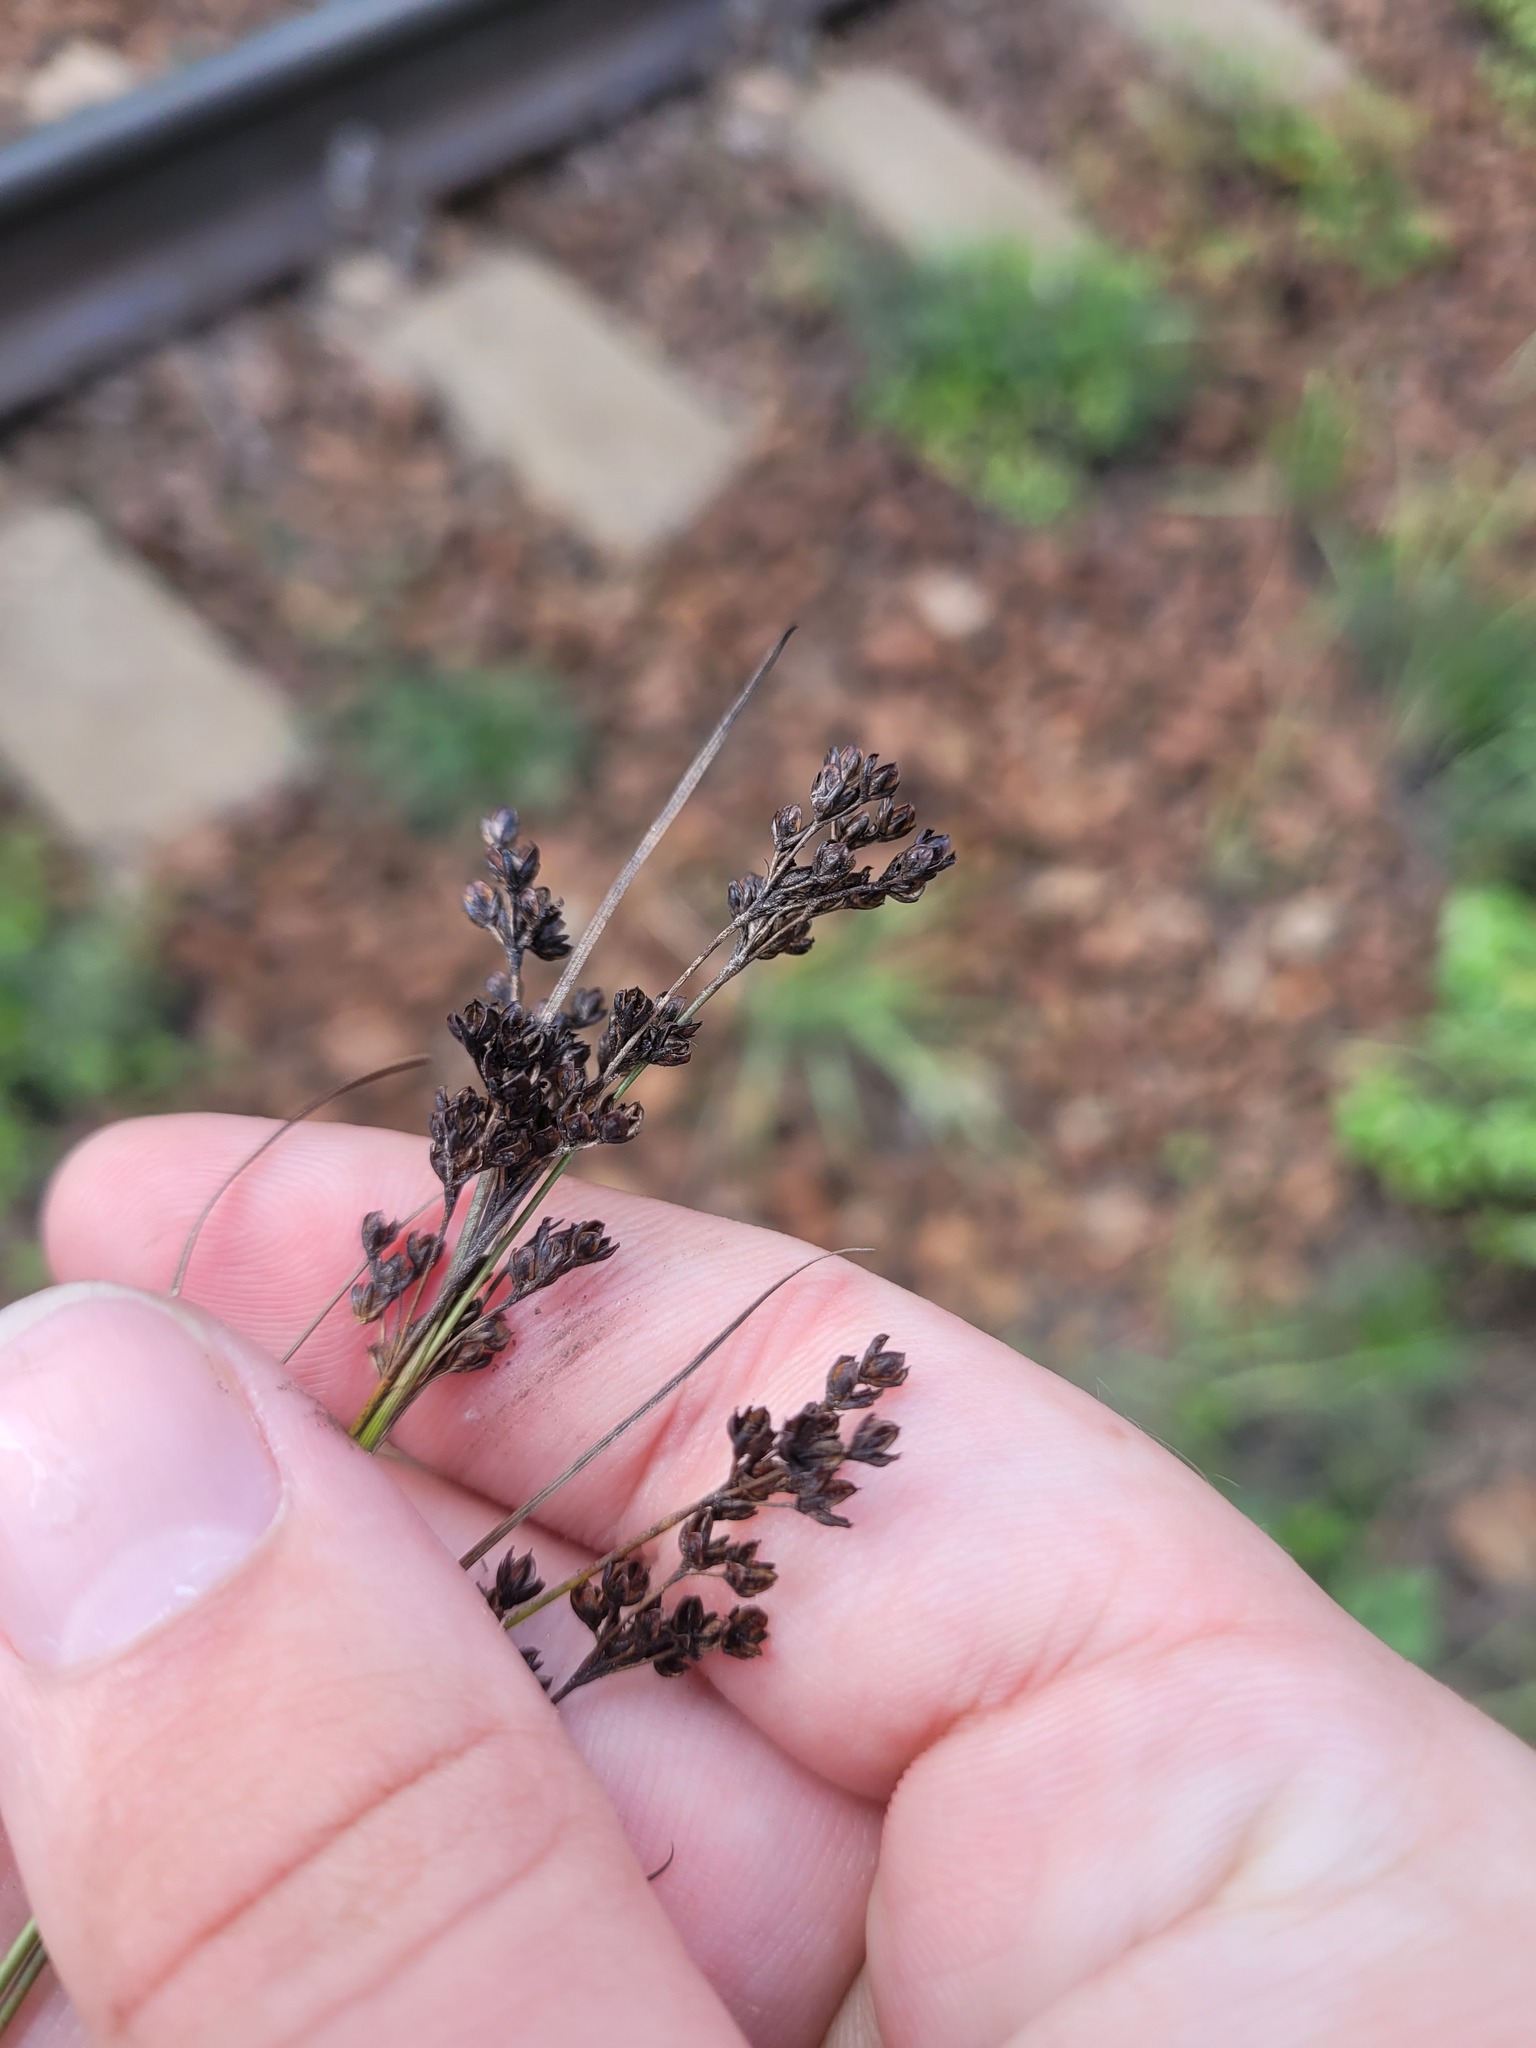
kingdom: Plantae
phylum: Tracheophyta
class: Liliopsida
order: Poales
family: Juncaceae
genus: Juncus
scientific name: Juncus compressus
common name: Round-fruited rush
